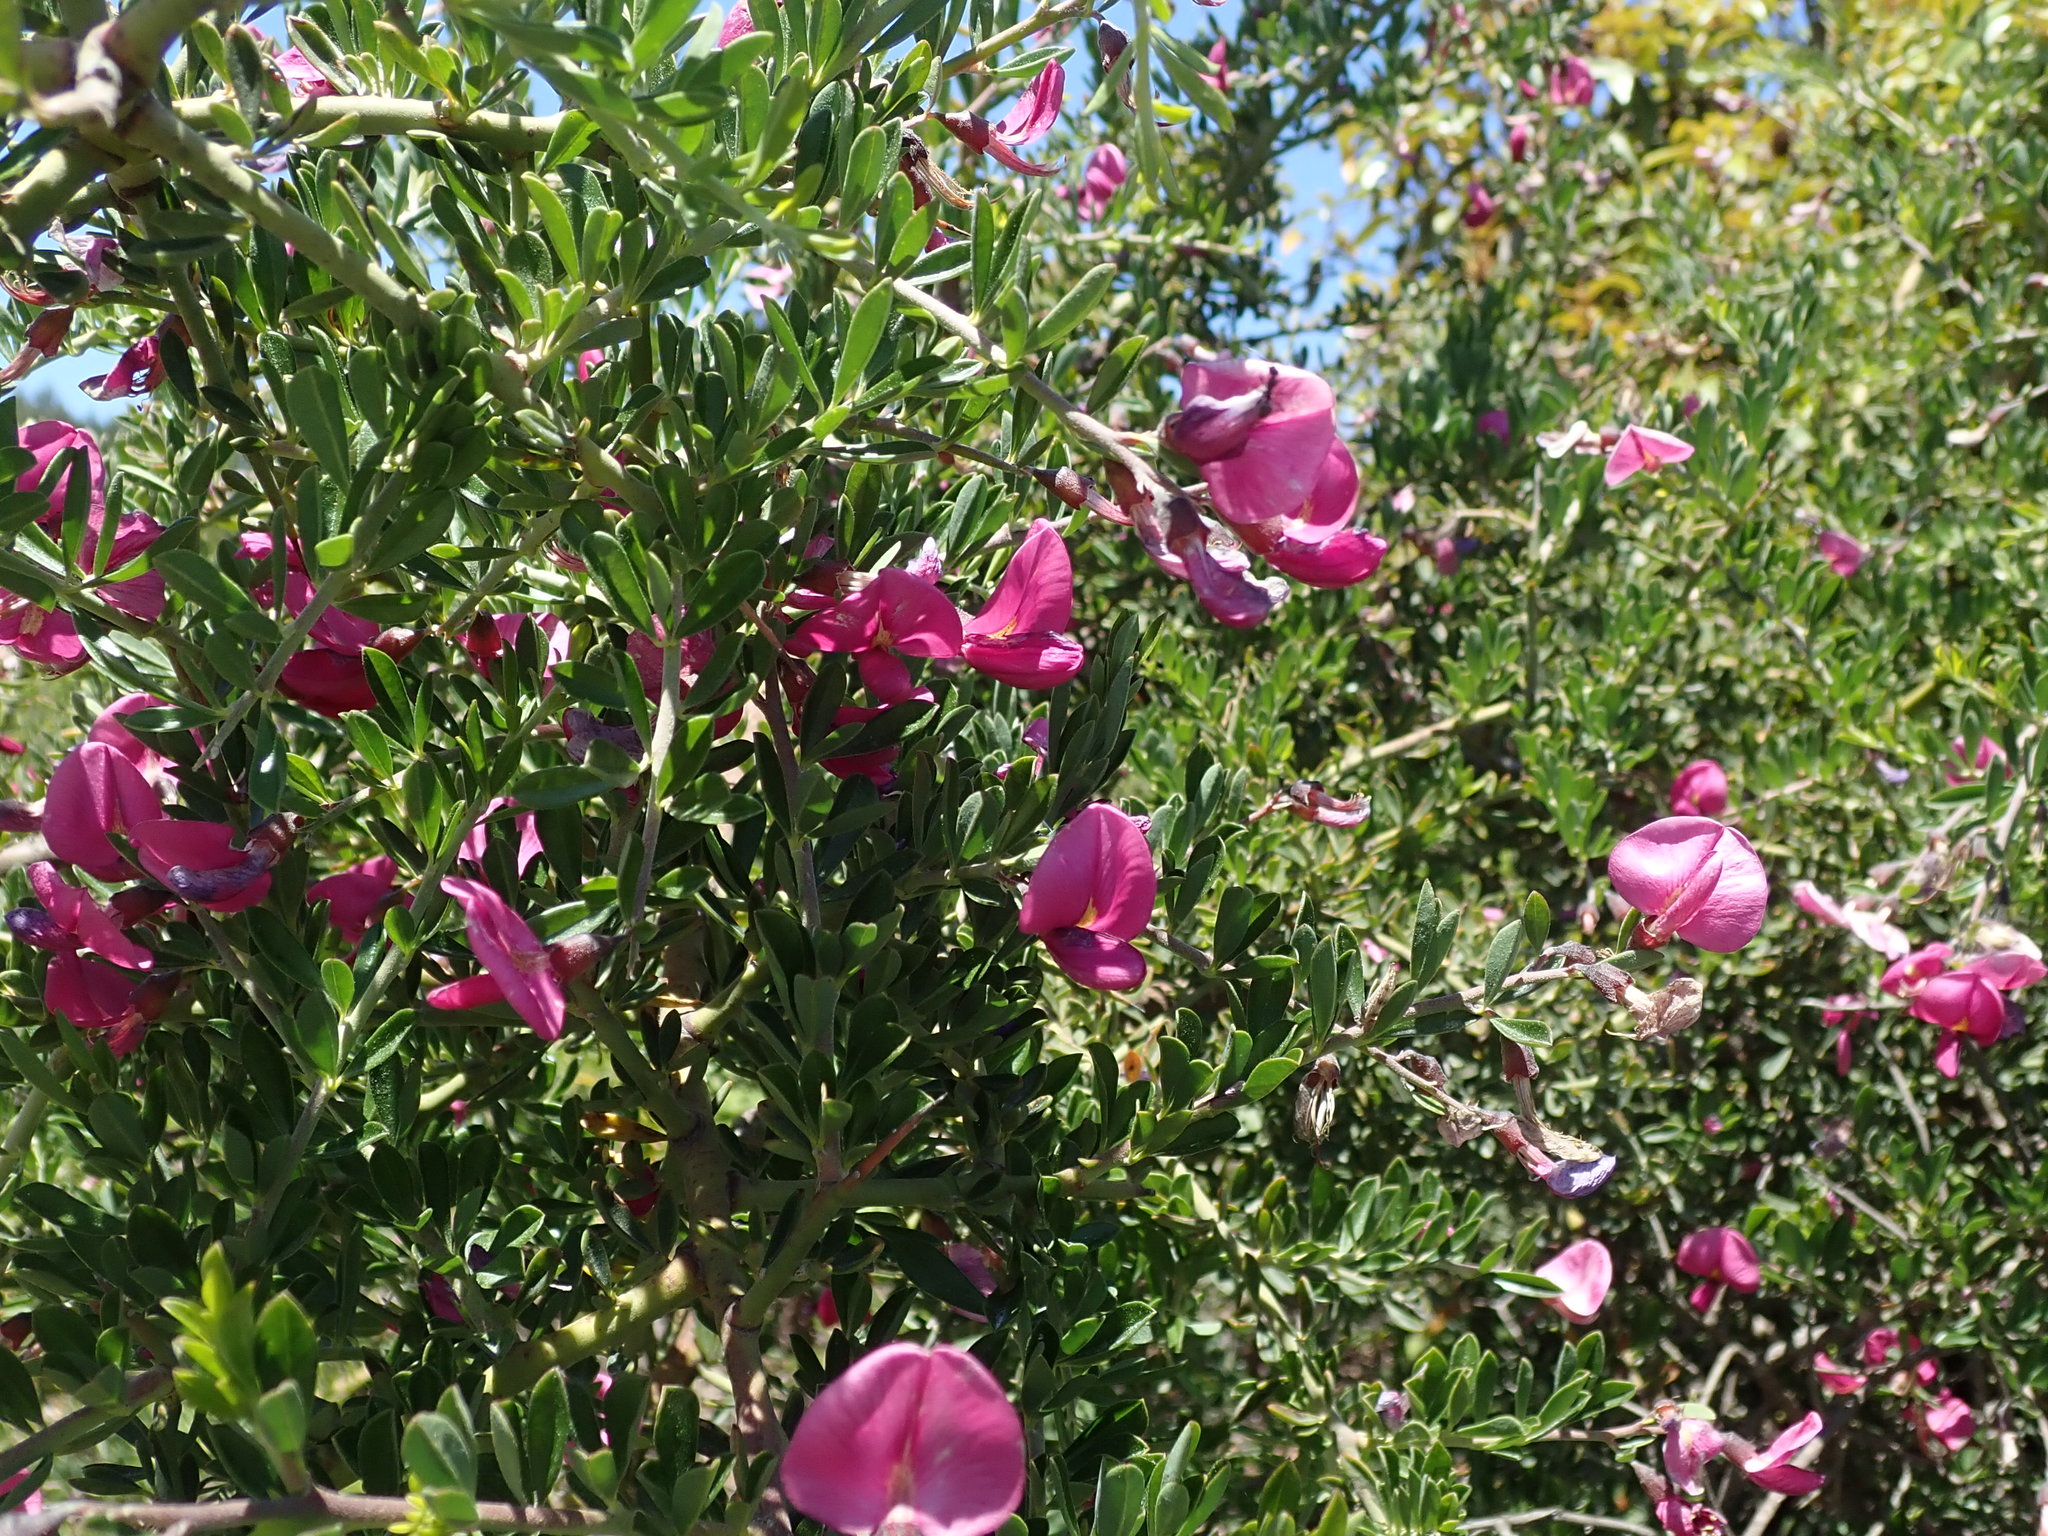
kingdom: Plantae
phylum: Tracheophyta
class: Magnoliopsida
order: Fabales
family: Fabaceae
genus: Pickeringia
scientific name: Pickeringia montana
